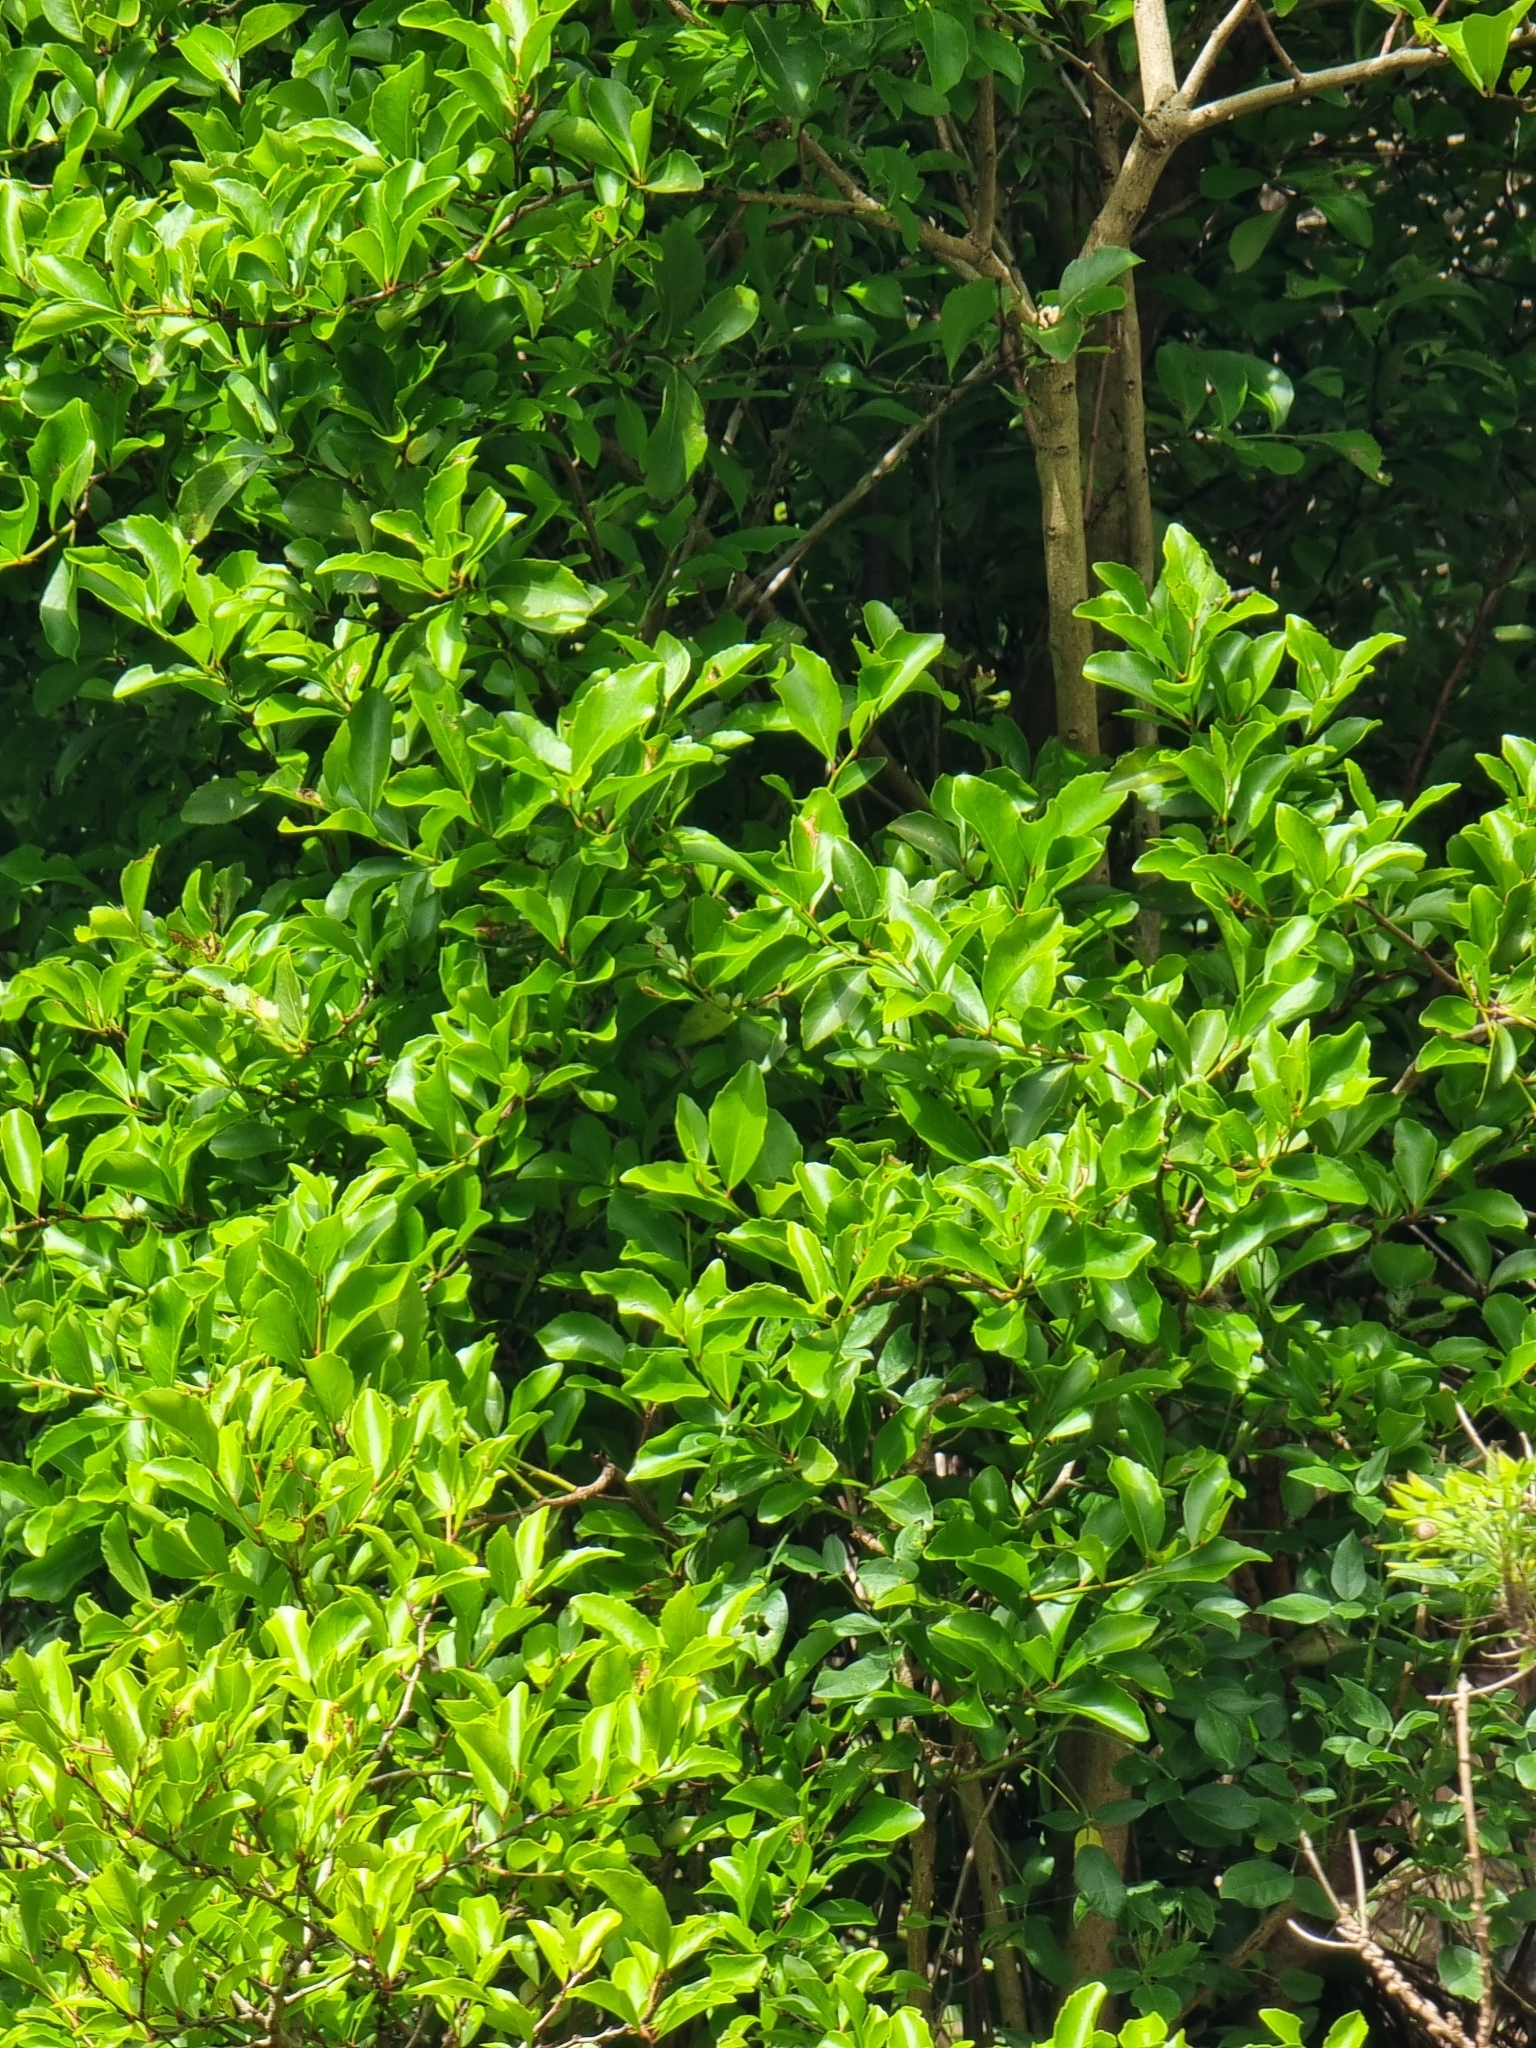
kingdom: Plantae
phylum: Tracheophyta
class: Magnoliopsida
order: Celastrales
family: Celastraceae
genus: Gymnosporia
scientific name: Gymnosporia dryandri
